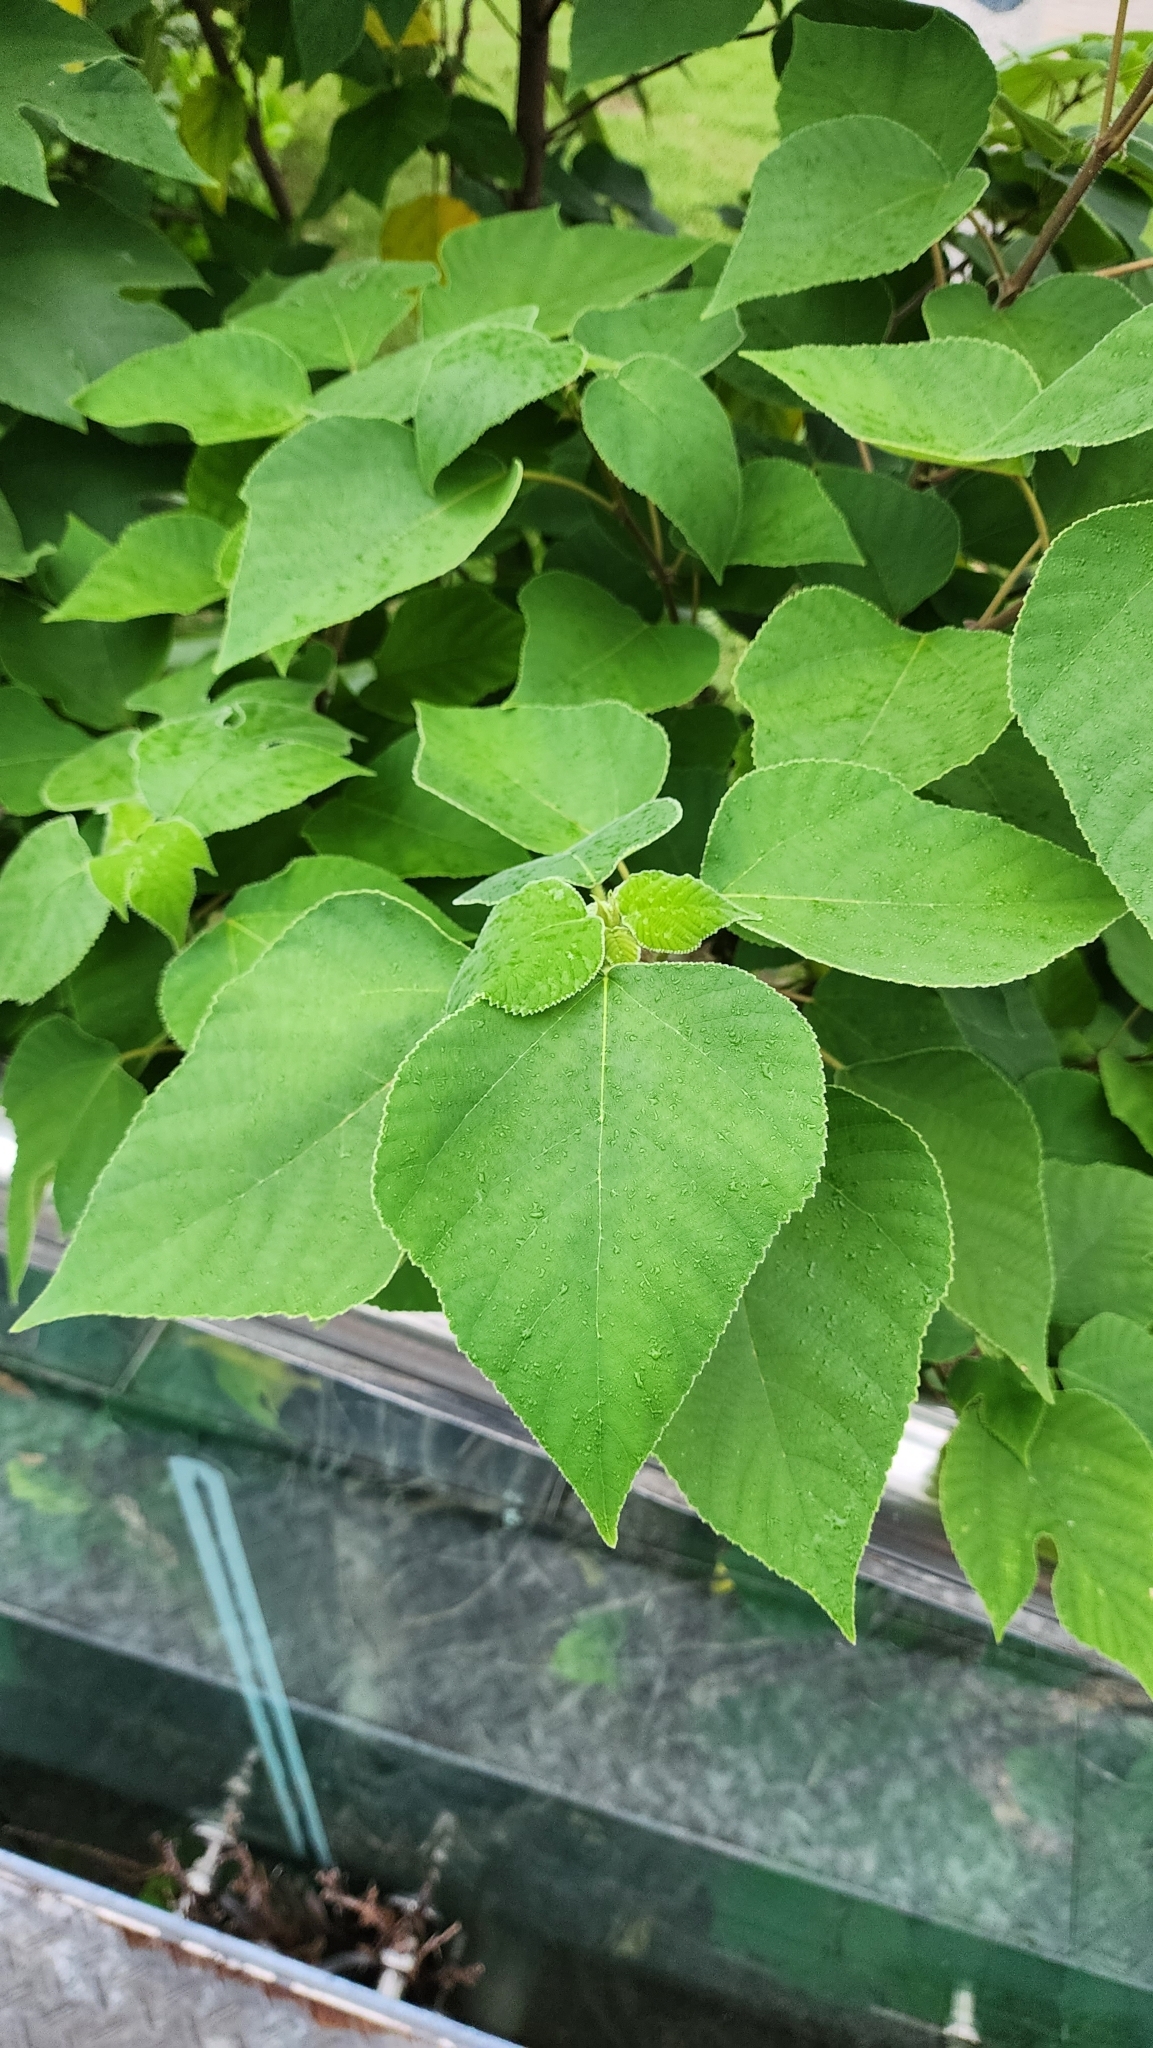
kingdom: Plantae
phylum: Tracheophyta
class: Magnoliopsida
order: Rosales
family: Moraceae
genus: Broussonetia
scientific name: Broussonetia papyrifera
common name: Paper mulberry
